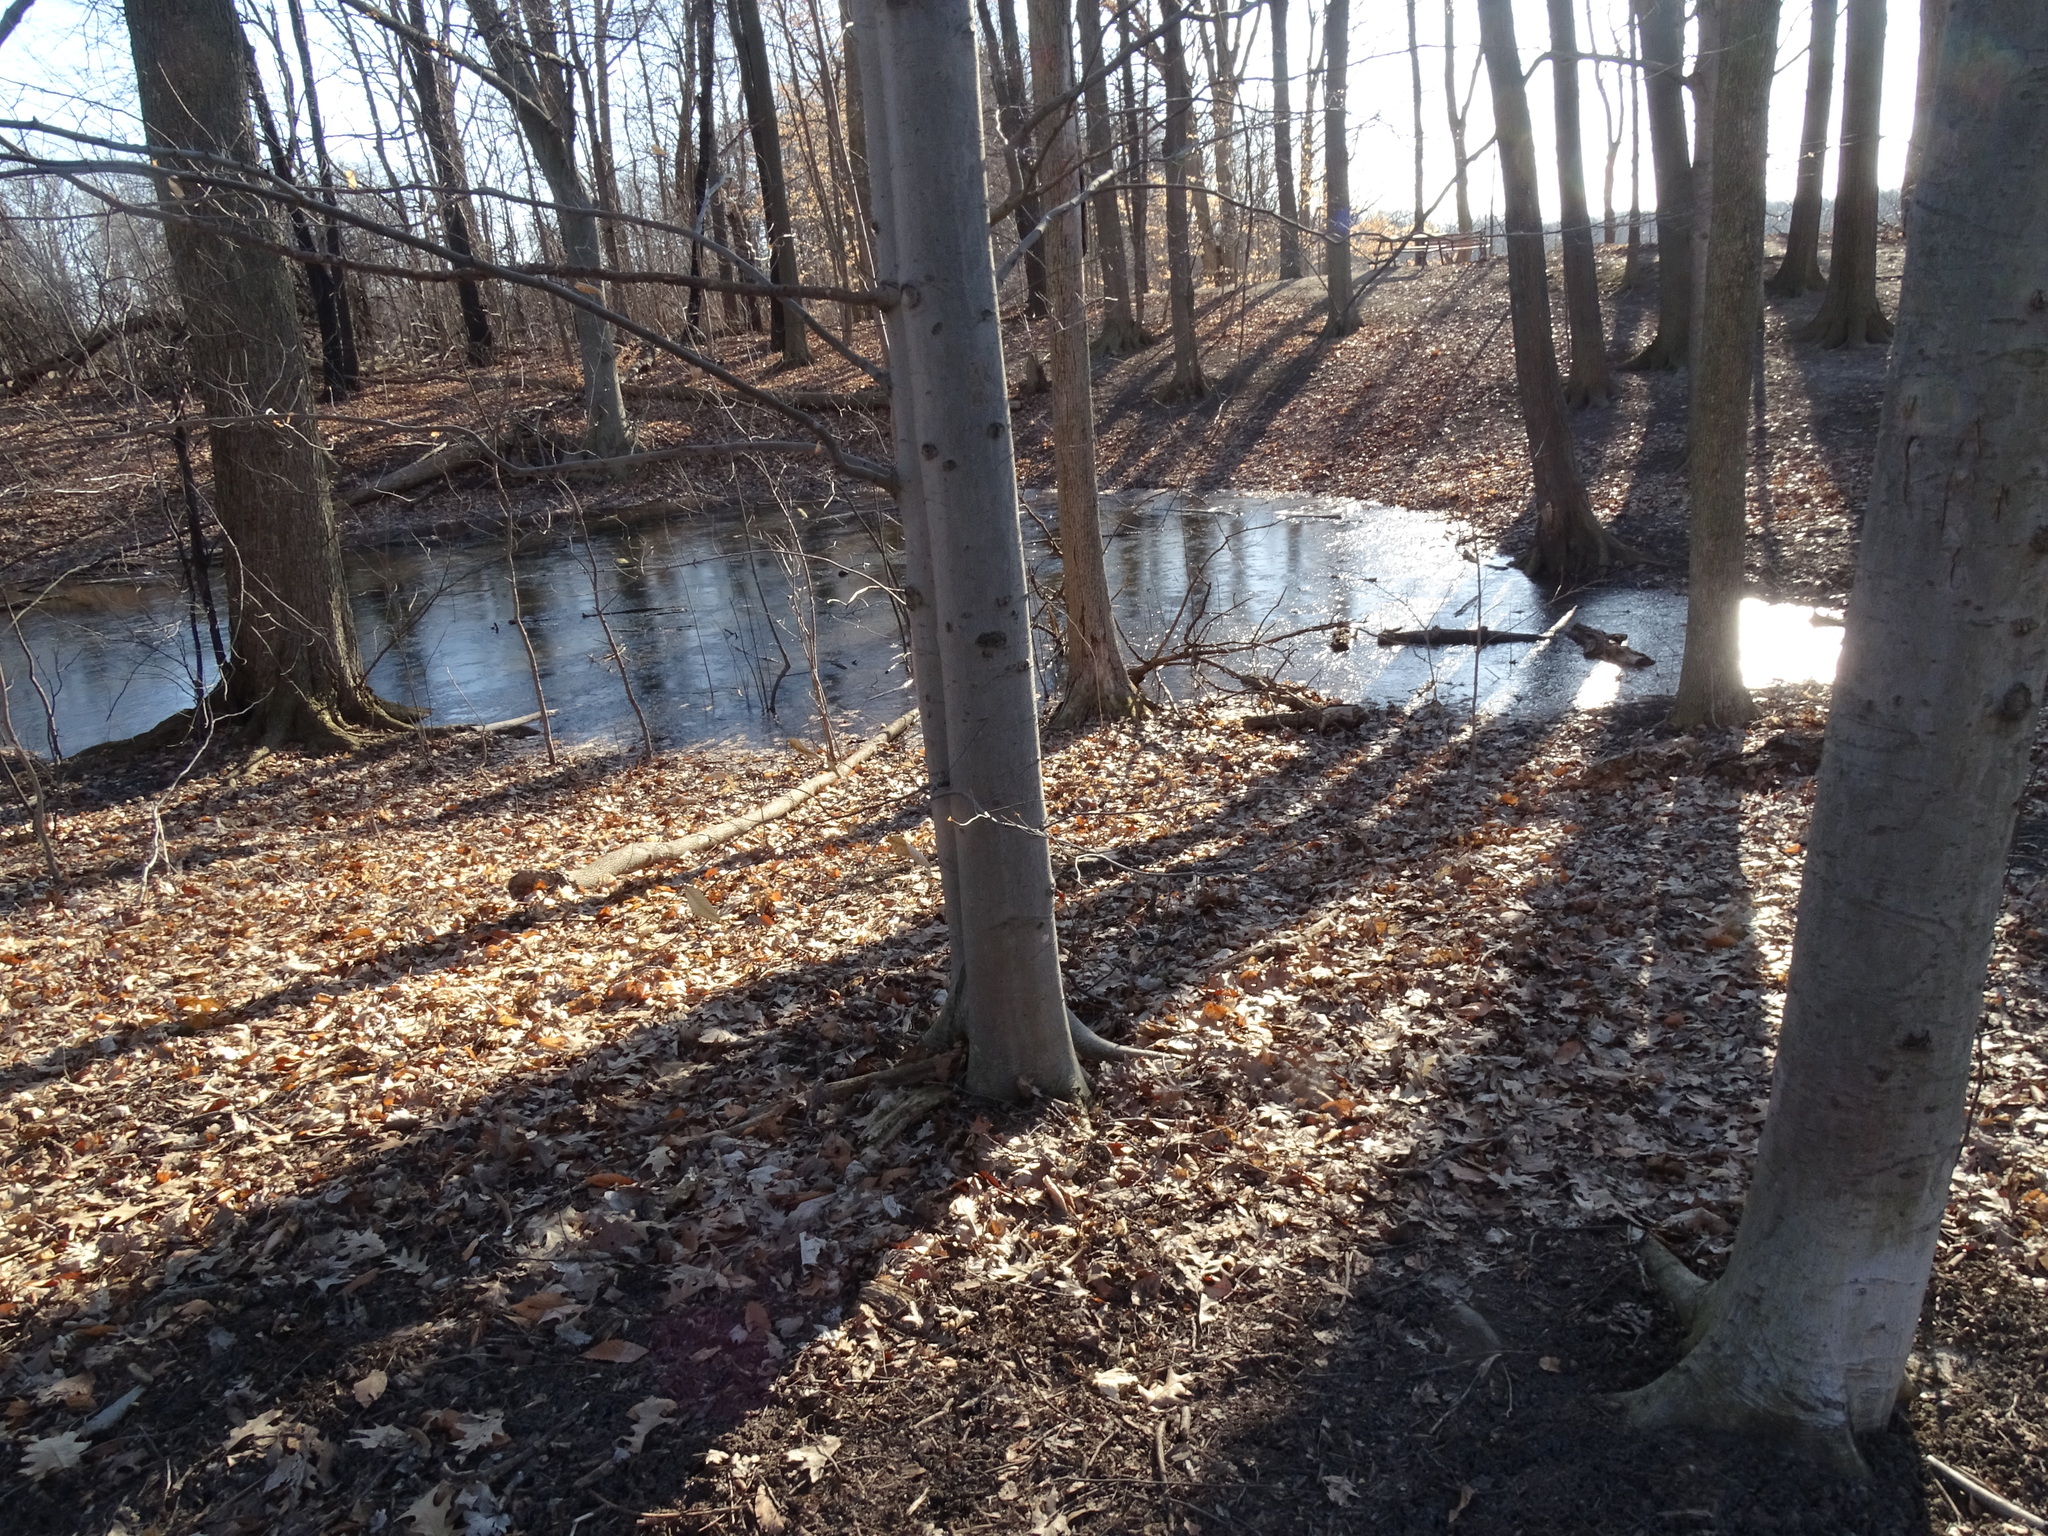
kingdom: Plantae
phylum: Tracheophyta
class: Magnoliopsida
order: Fagales
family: Fagaceae
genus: Fagus
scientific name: Fagus grandifolia
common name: American beech
